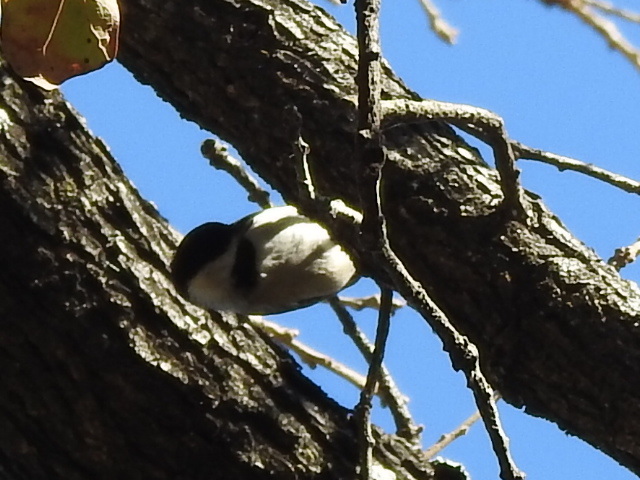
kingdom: Animalia
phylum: Chordata
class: Aves
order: Passeriformes
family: Paridae
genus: Poecile
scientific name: Poecile carolinensis
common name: Carolina chickadee
